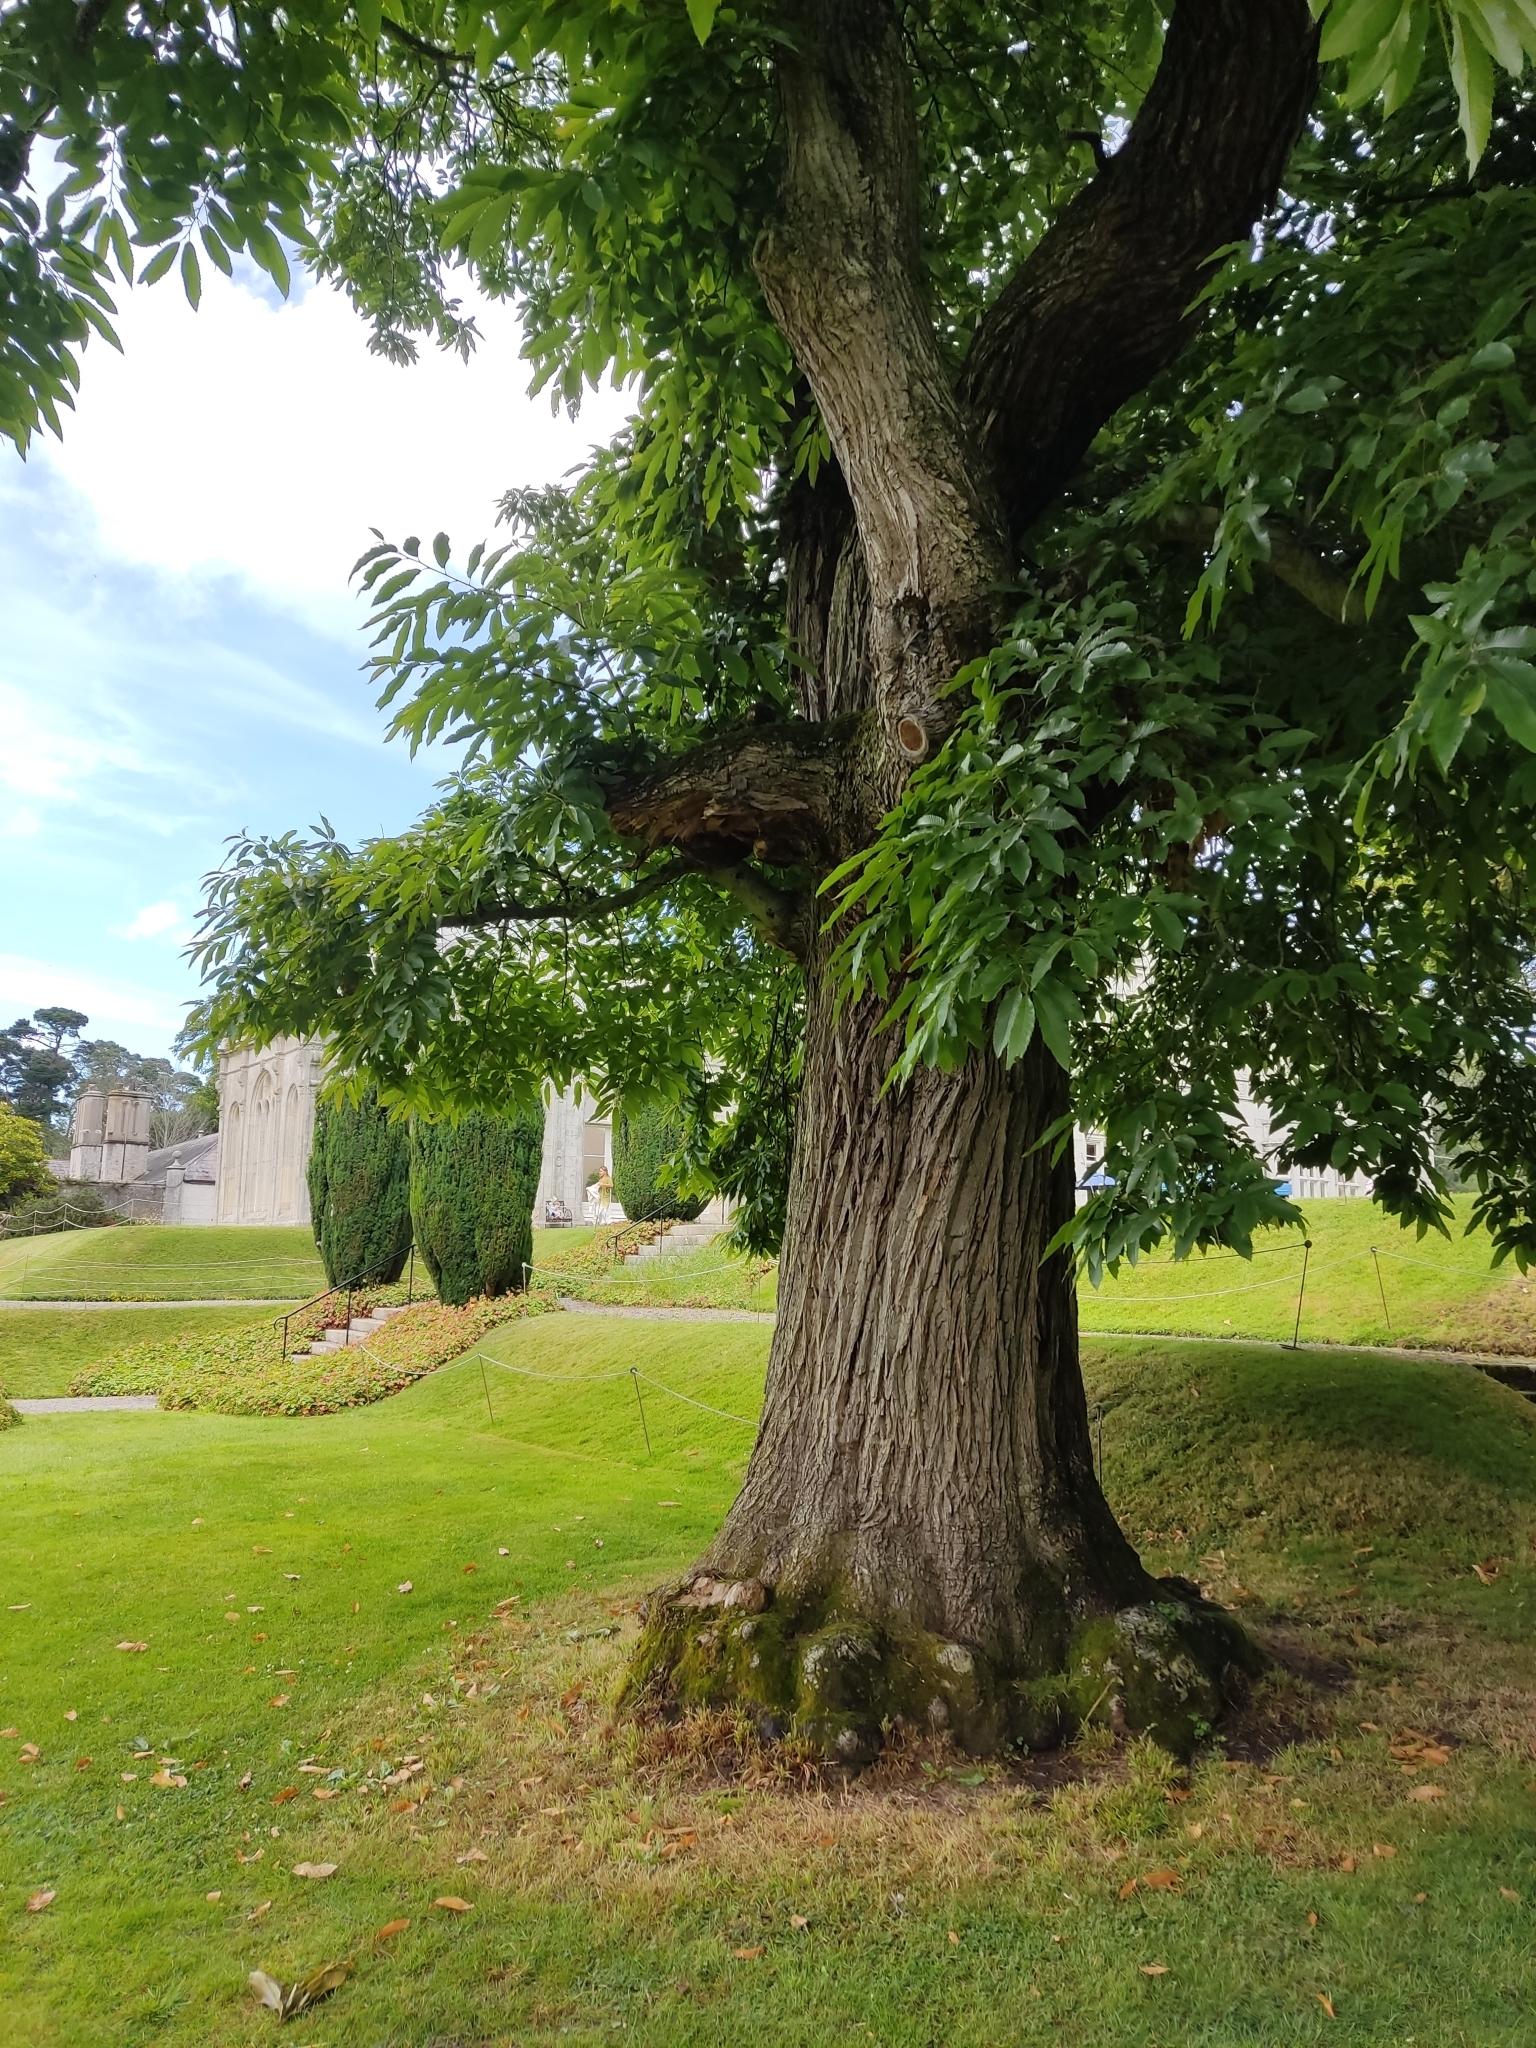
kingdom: Plantae
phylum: Tracheophyta
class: Magnoliopsida
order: Fagales
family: Fagaceae
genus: Castanea
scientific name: Castanea sativa
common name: Sweet chestnut
